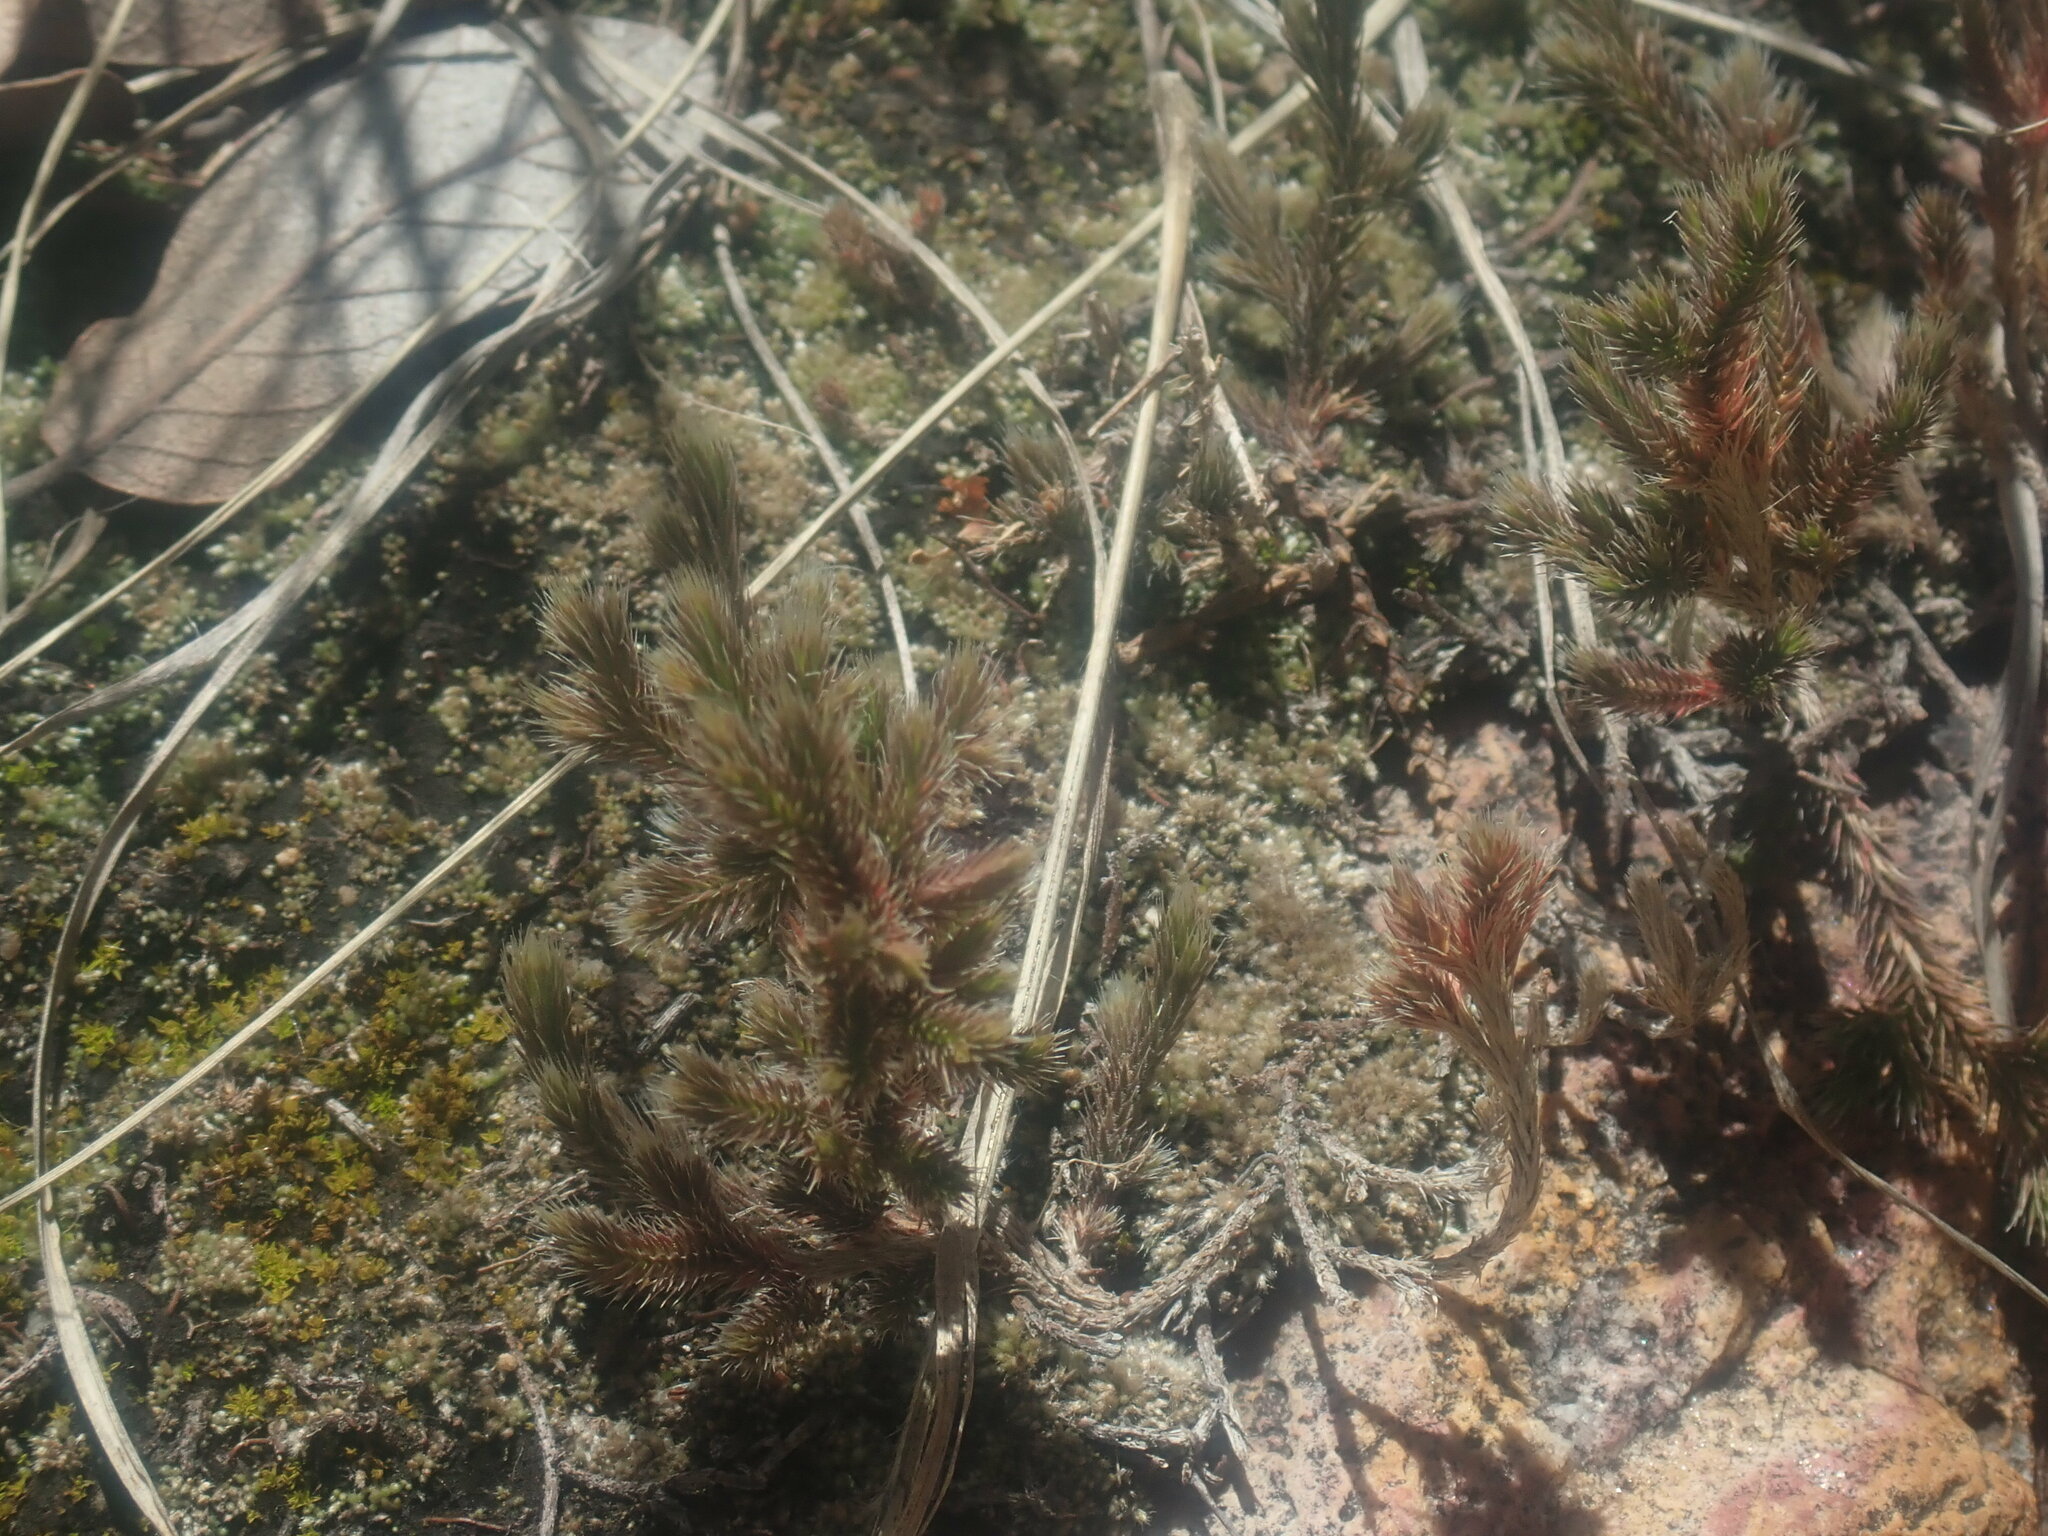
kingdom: Plantae
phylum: Tracheophyta
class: Lycopodiopsida
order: Selaginellales
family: Selaginellaceae
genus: Selaginella
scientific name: Selaginella rupincola
